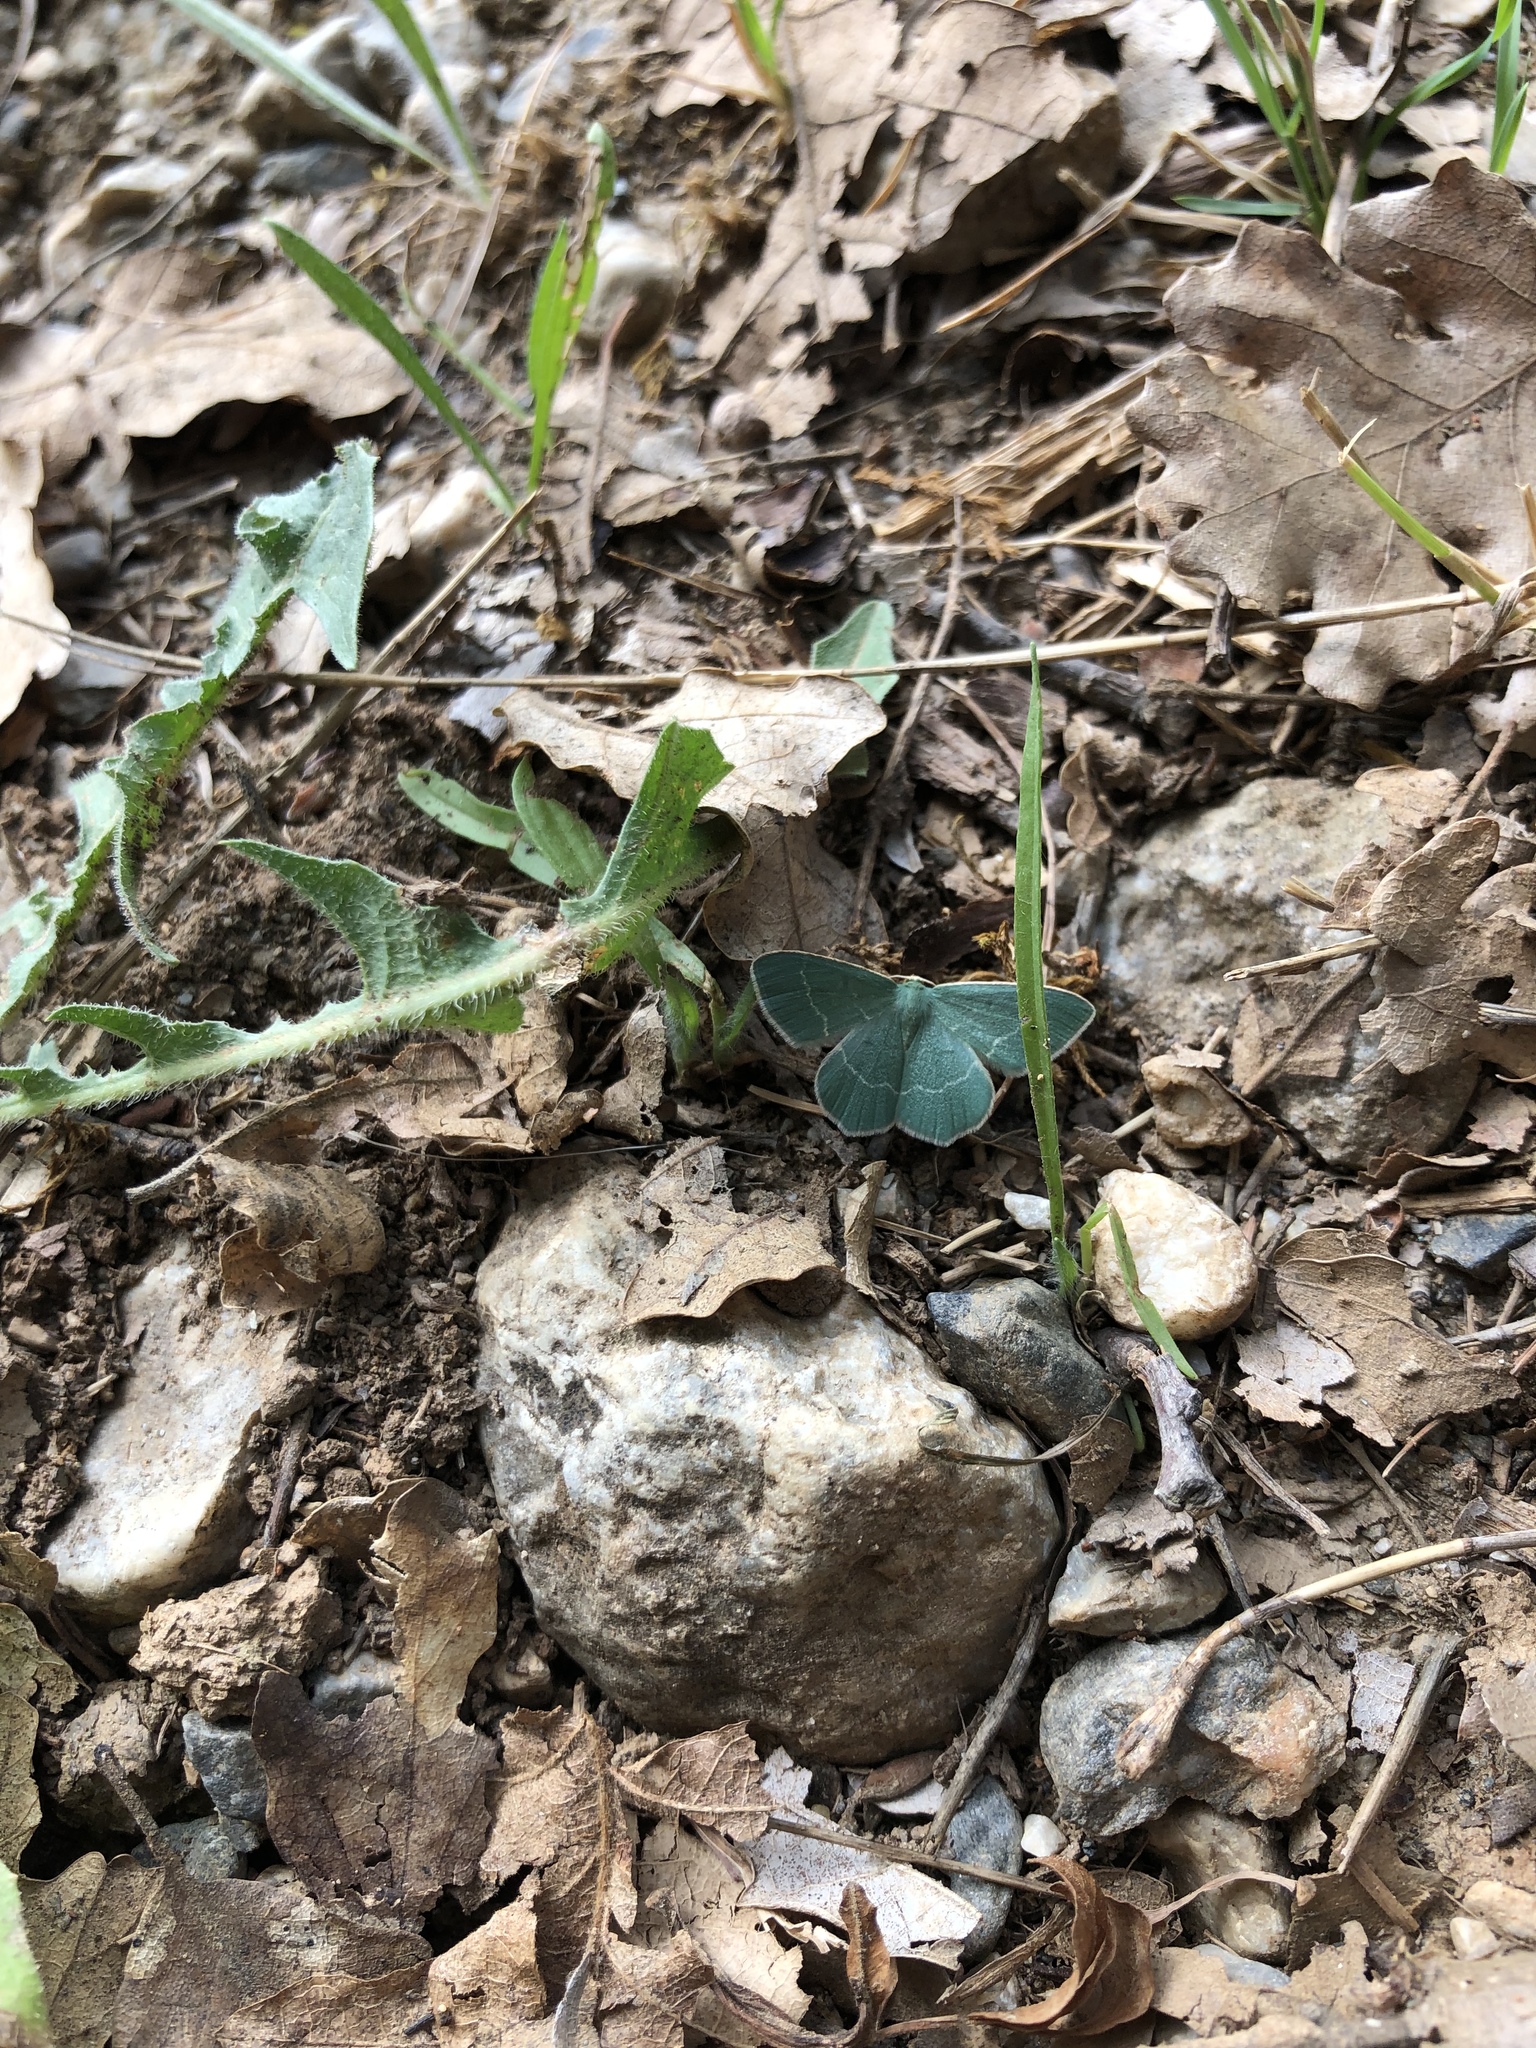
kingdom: Animalia
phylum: Arthropoda
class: Insecta
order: Lepidoptera
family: Geometridae
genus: Chlorissa
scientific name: Chlorissa viridata
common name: Small grass emerald
